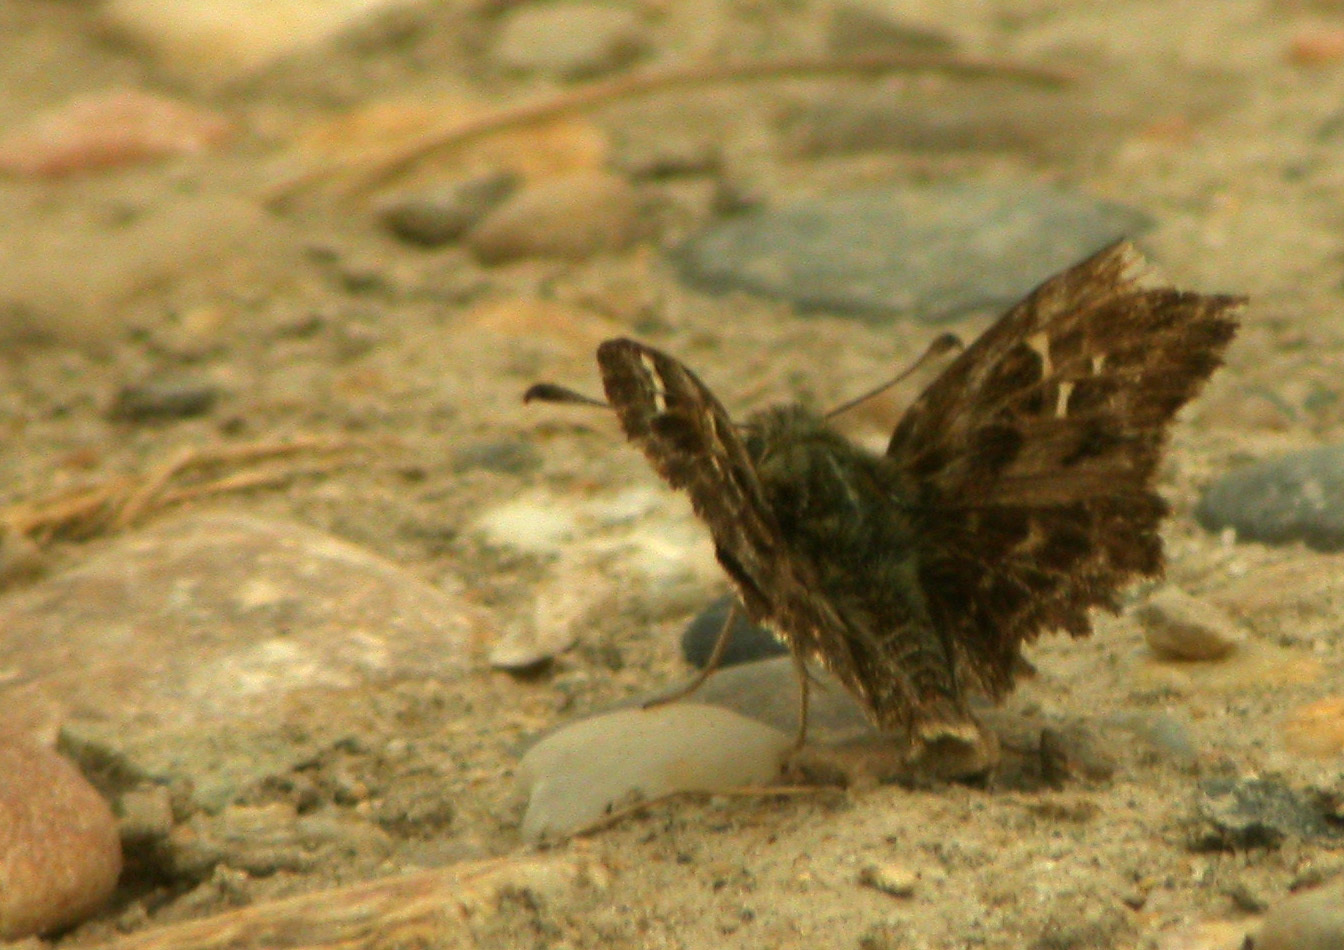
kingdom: Animalia
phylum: Arthropoda
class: Insecta
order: Lepidoptera
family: Hesperiidae
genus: Carcharodus
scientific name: Carcharodus alceae
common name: Mallow skipper
